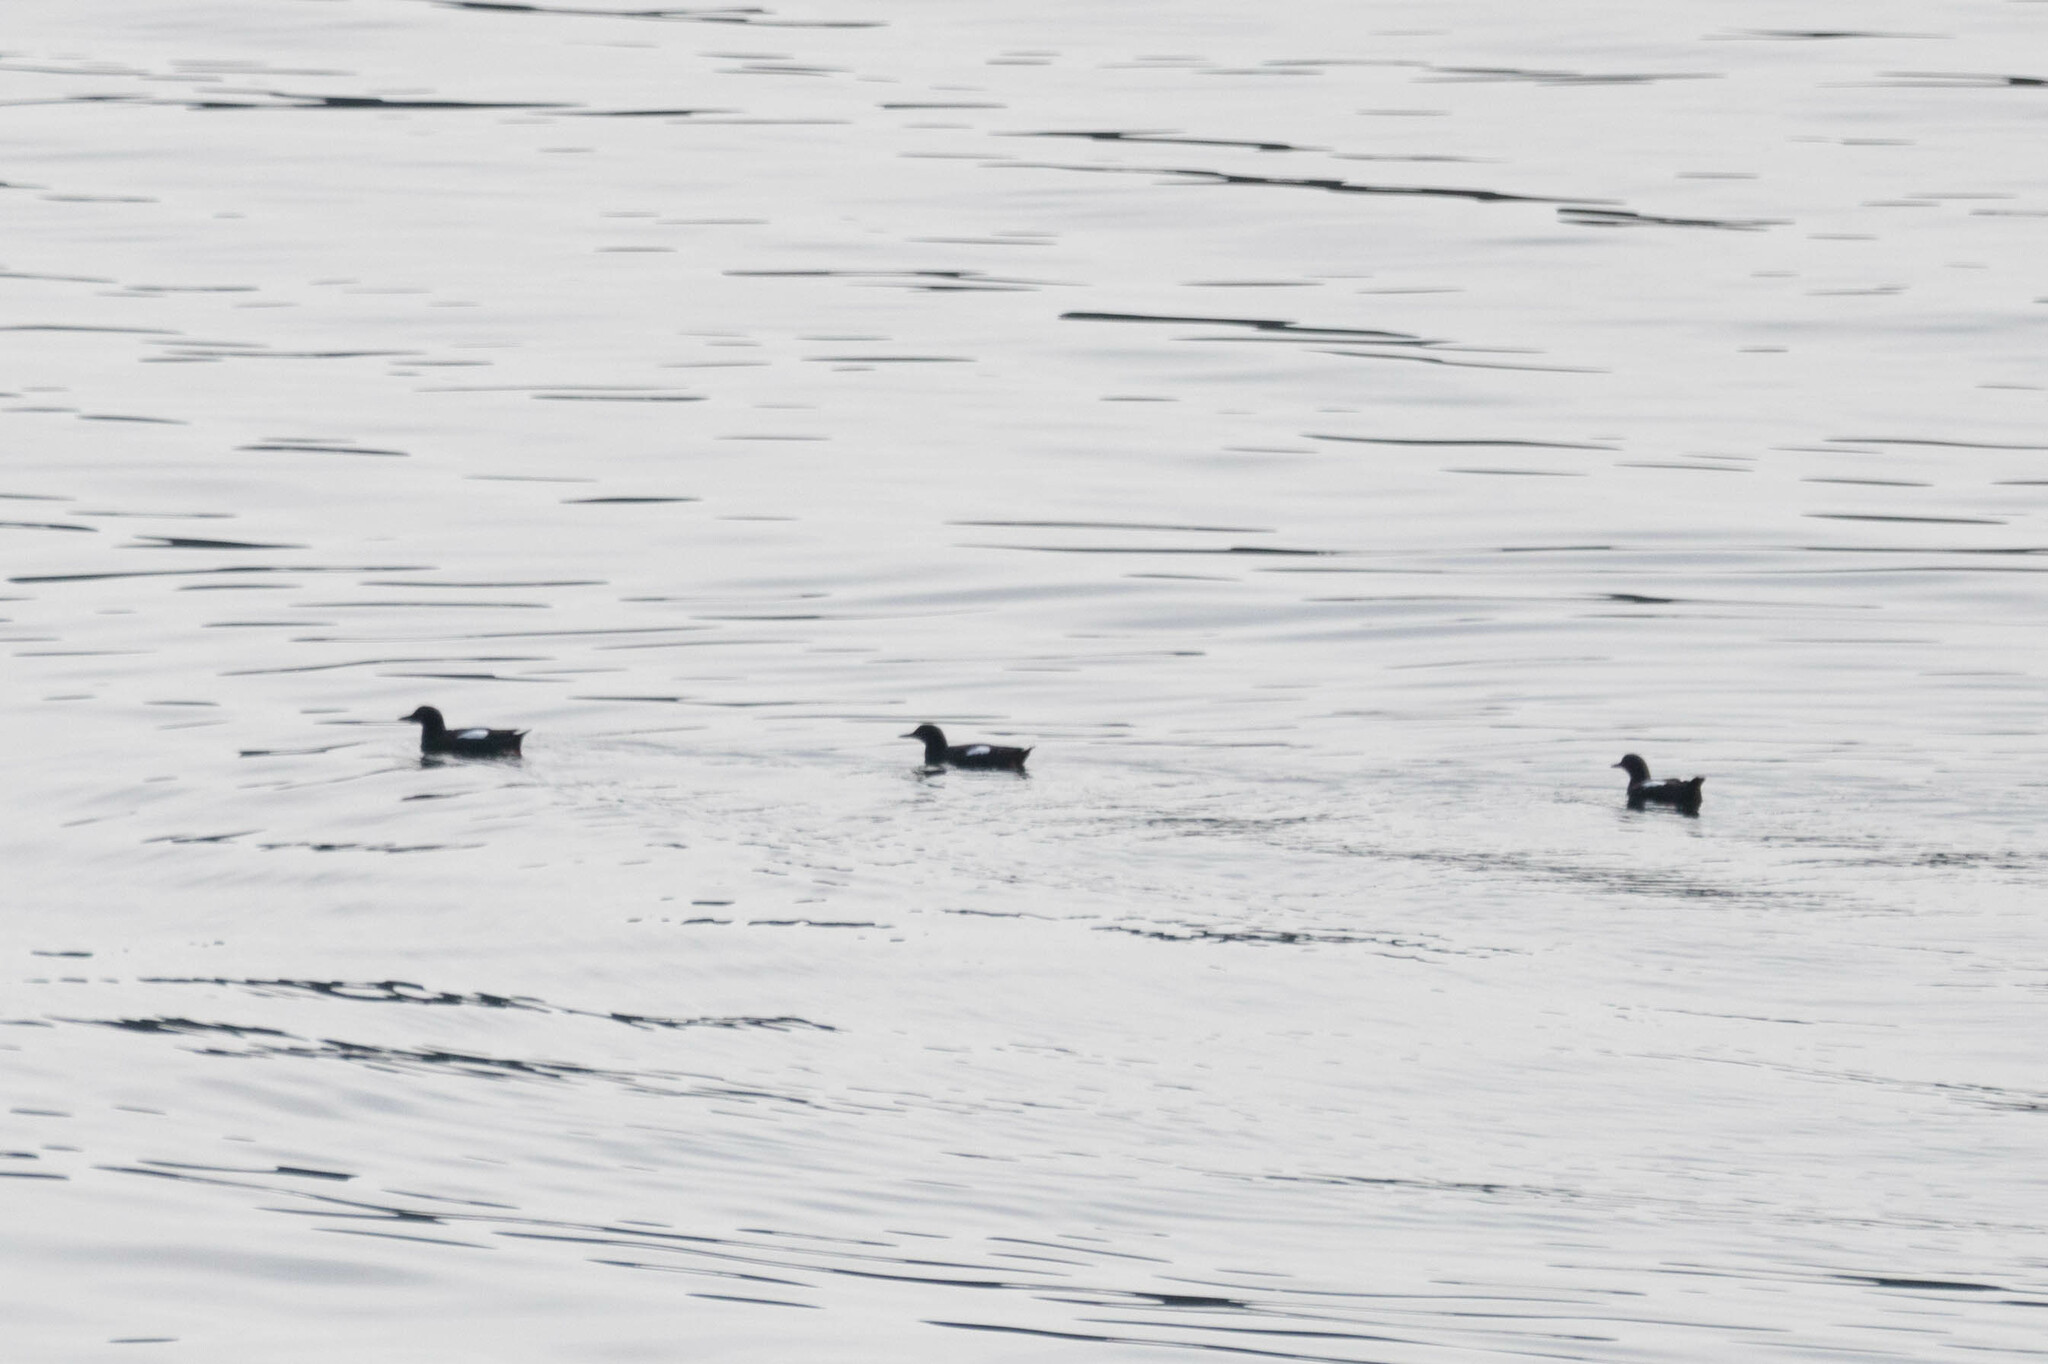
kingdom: Animalia
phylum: Chordata
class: Aves
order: Charadriiformes
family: Alcidae
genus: Cepphus
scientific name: Cepphus columba
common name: Pigeon guillemot
